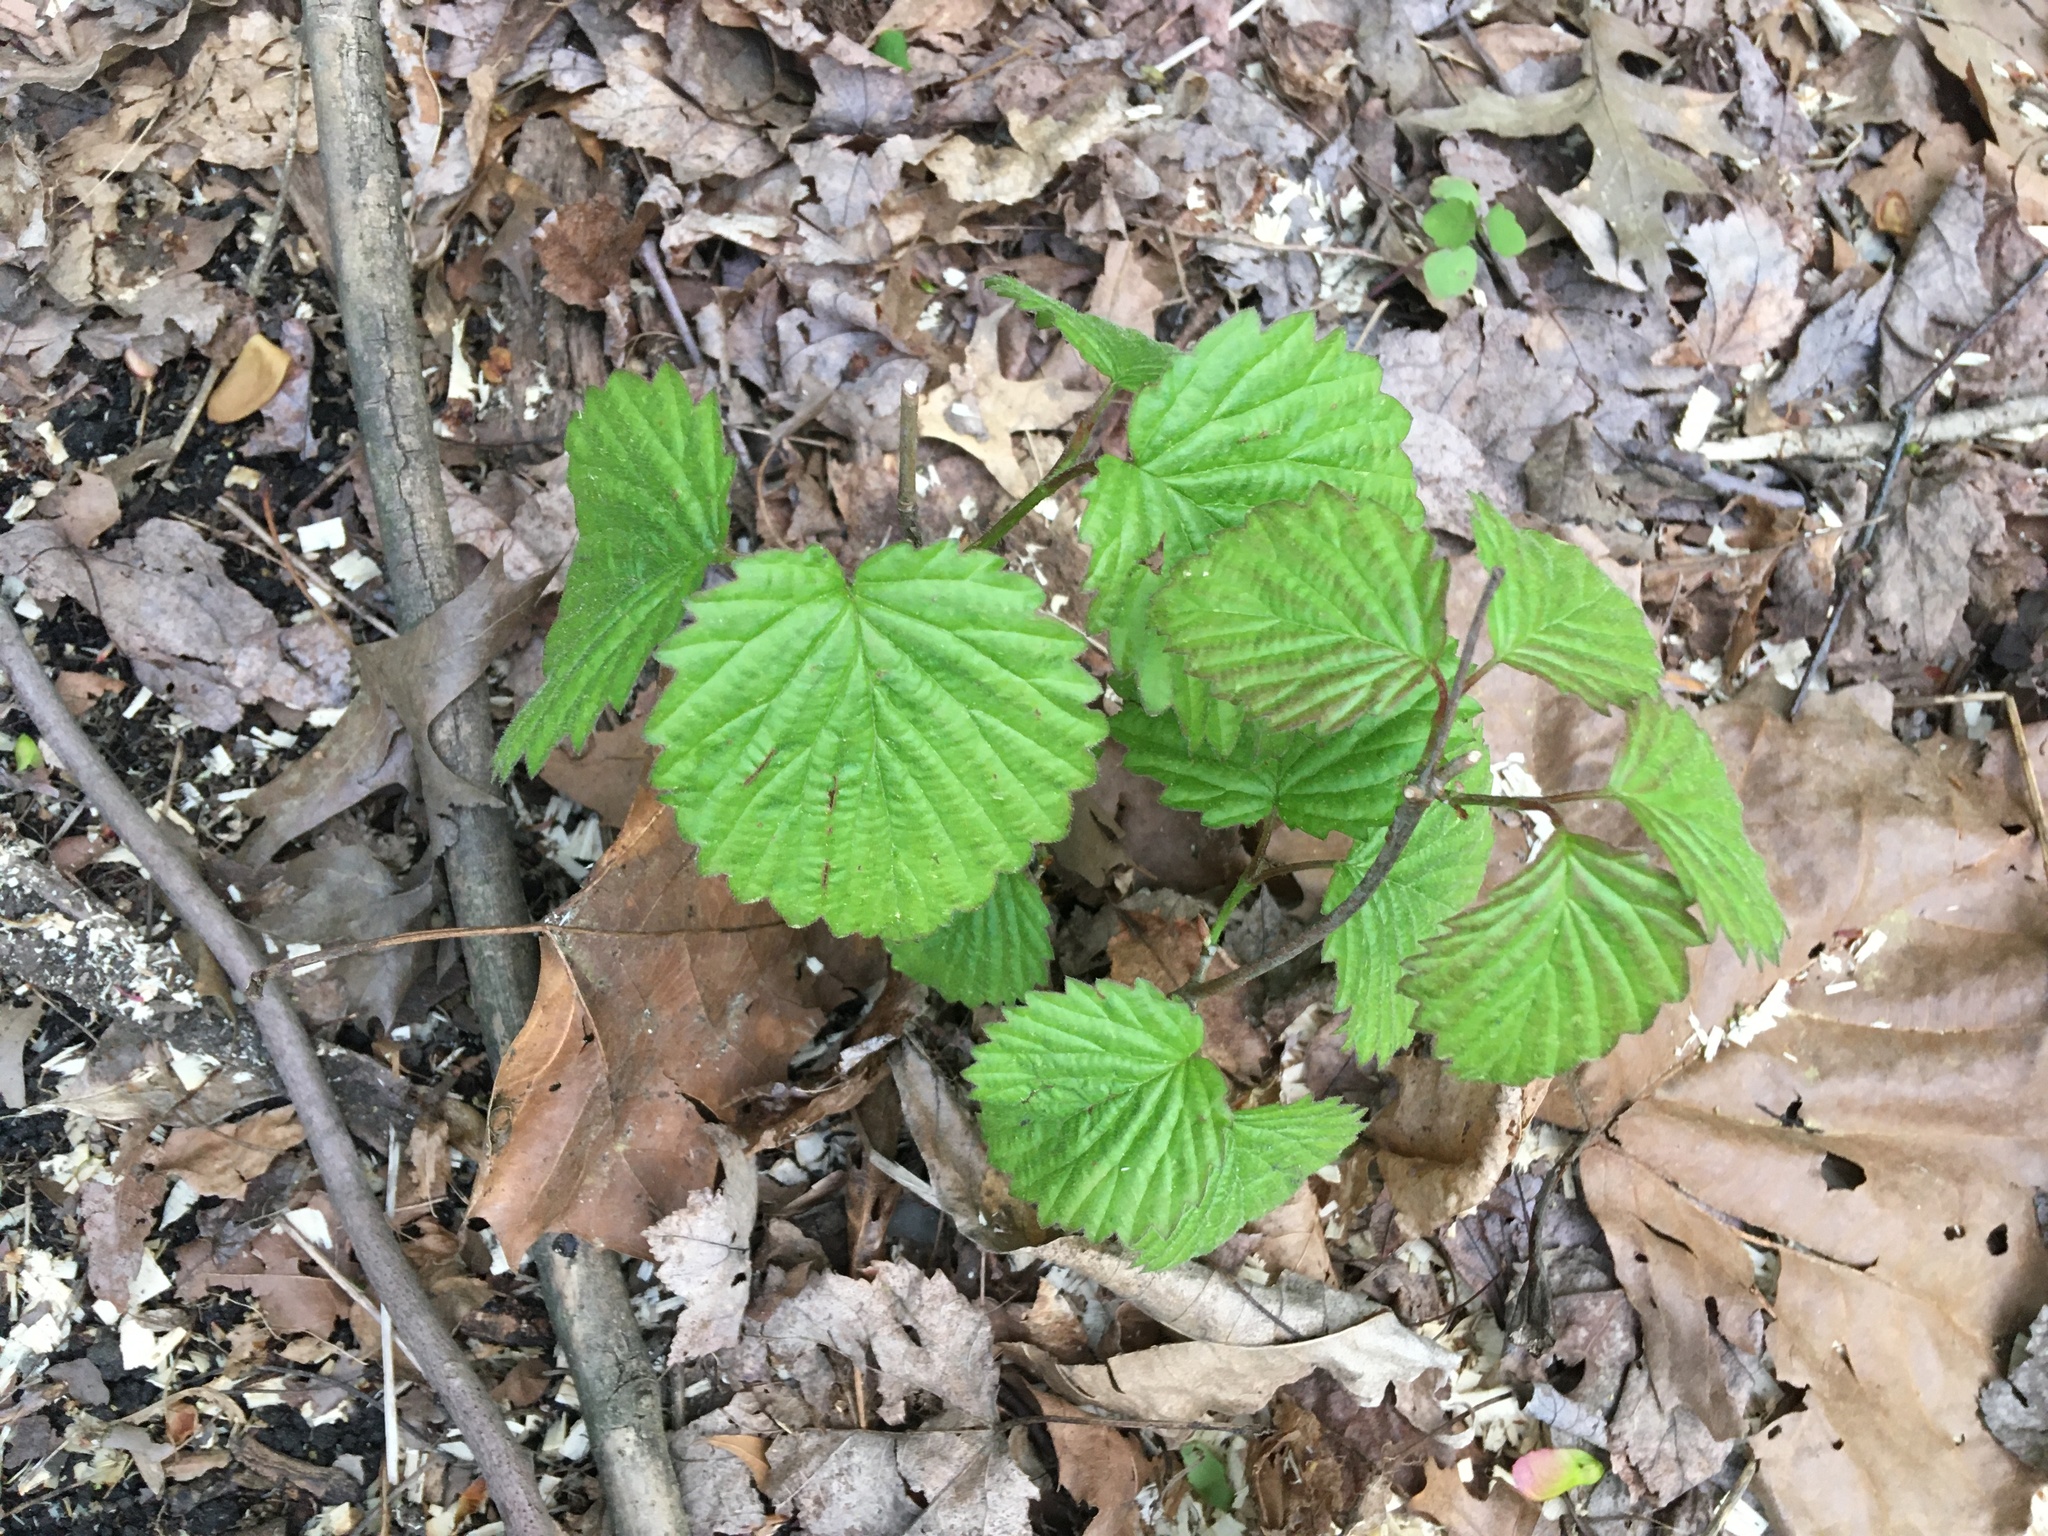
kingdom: Plantae
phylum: Tracheophyta
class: Magnoliopsida
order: Dipsacales
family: Viburnaceae
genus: Viburnum
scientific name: Viburnum dentatum
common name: Arrow-wood
